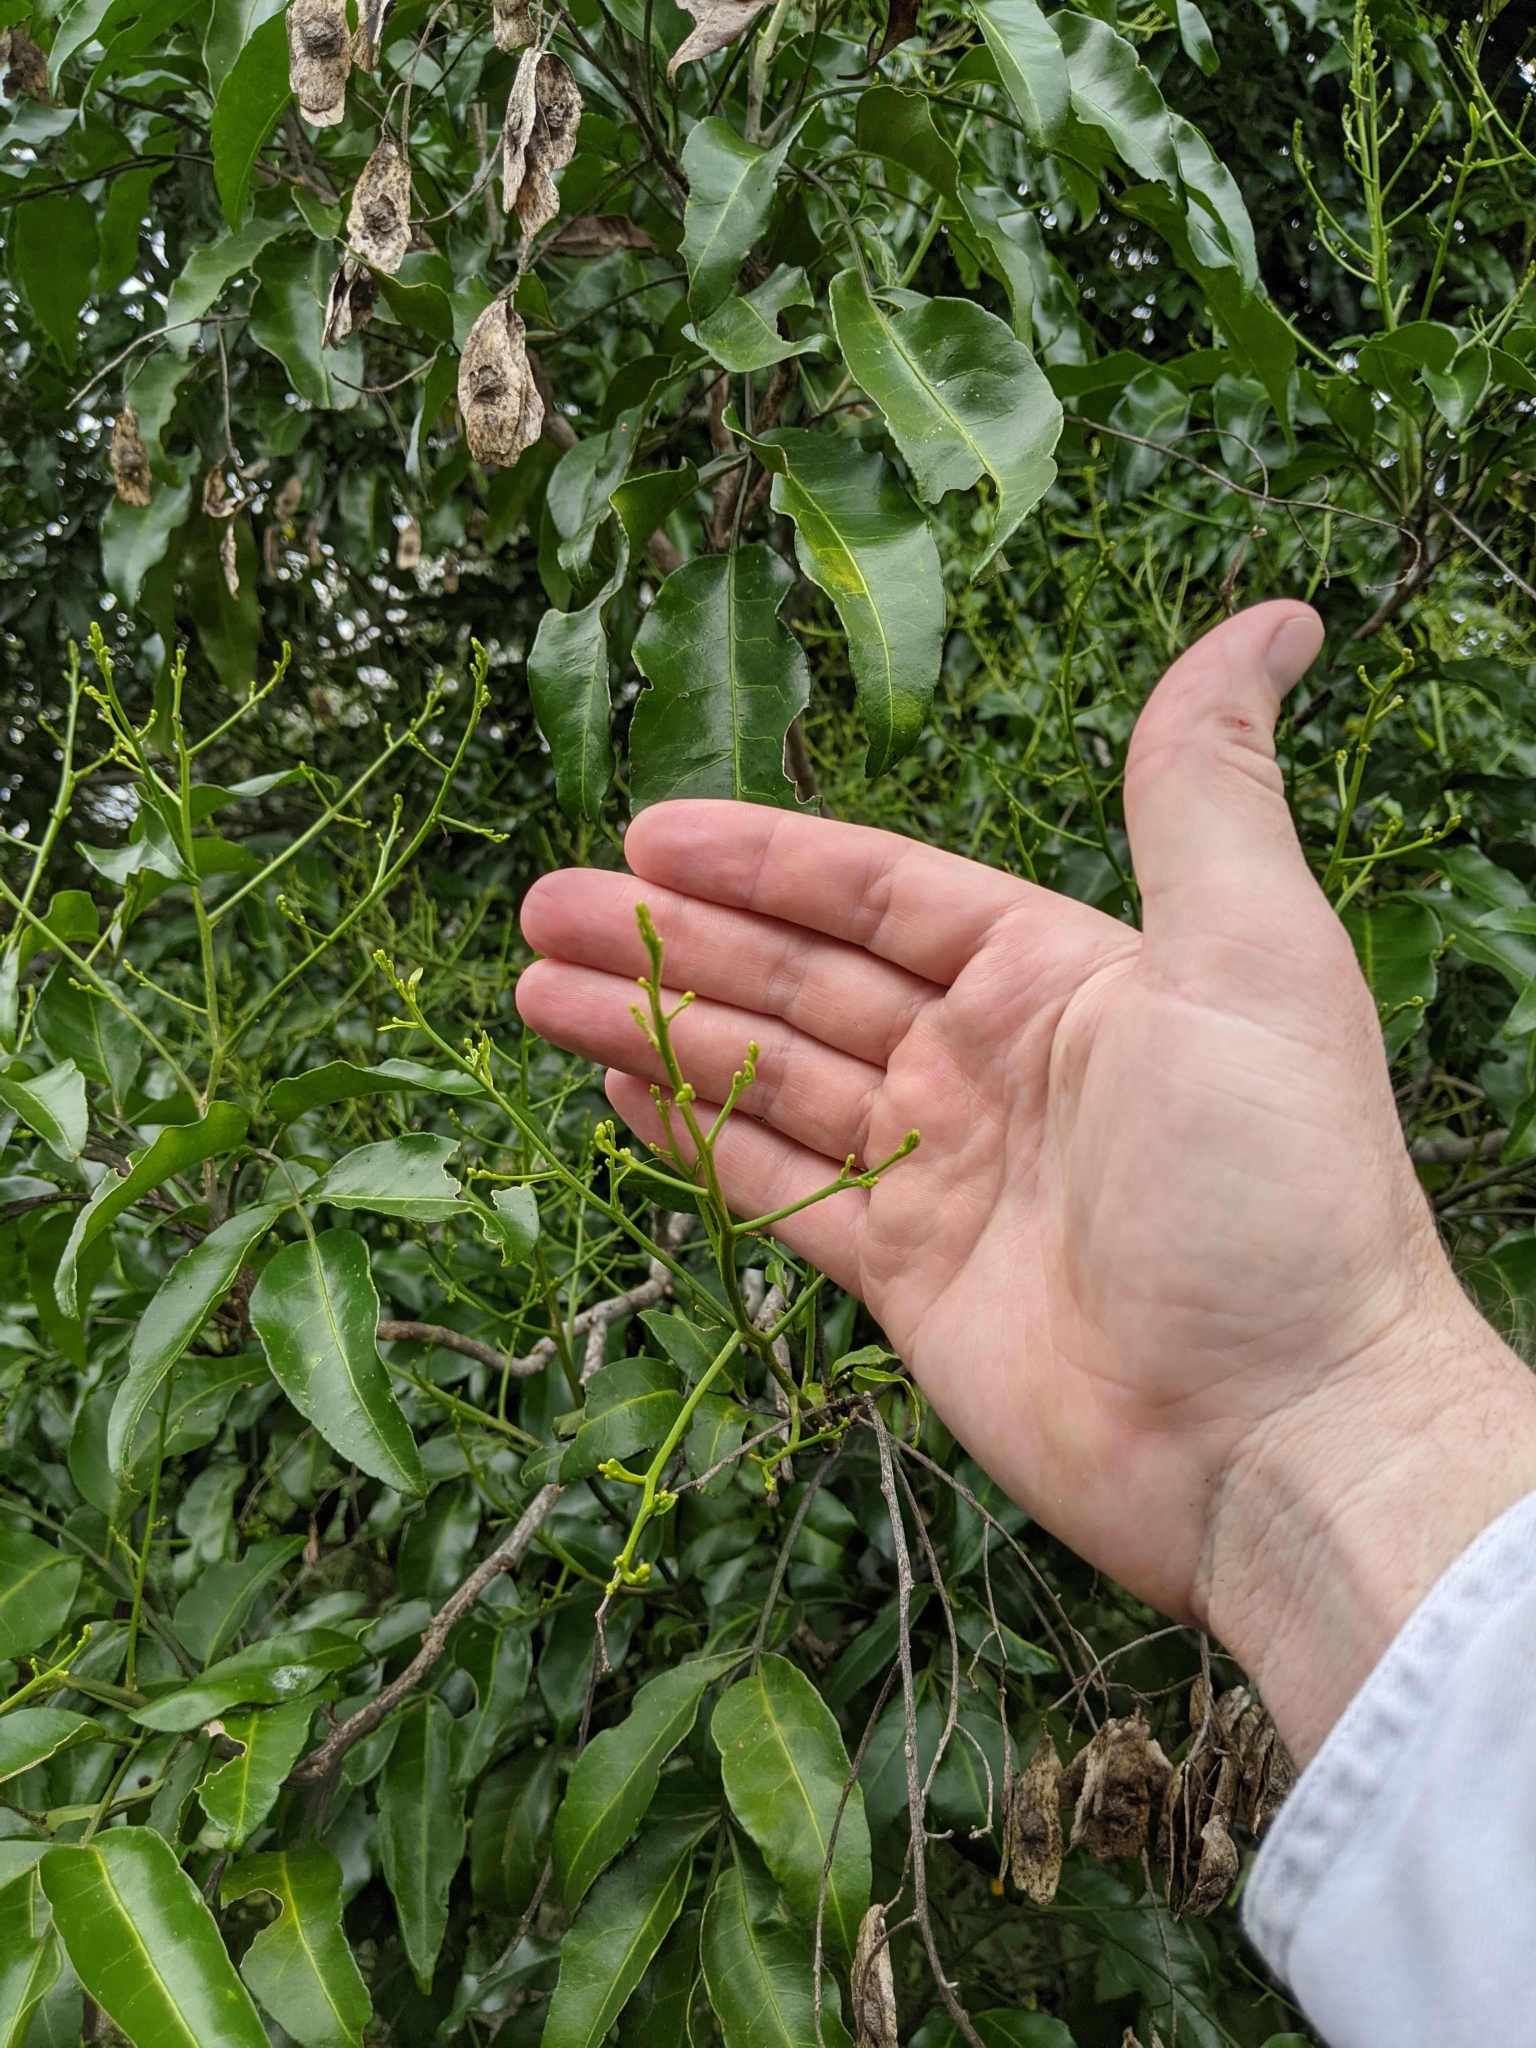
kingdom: Plantae
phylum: Tracheophyta
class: Magnoliopsida
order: Sapindales
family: Rutaceae
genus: Pentaceras
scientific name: Pentaceras australe
